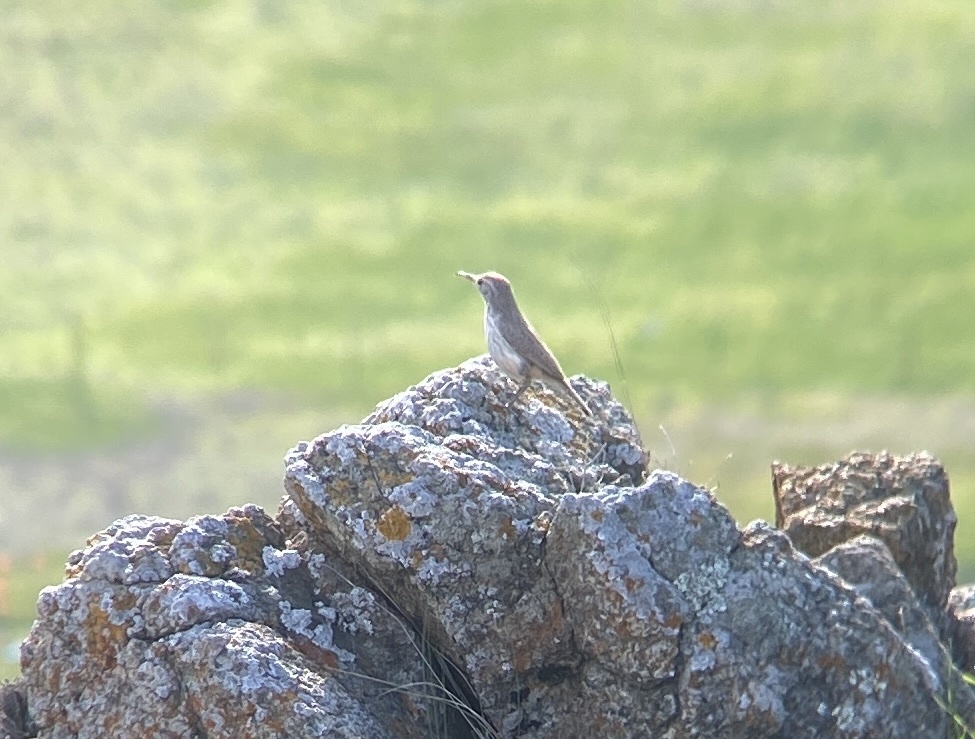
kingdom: Animalia
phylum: Chordata
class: Aves
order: Passeriformes
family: Troglodytidae
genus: Salpinctes
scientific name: Salpinctes obsoletus
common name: Rock wren
